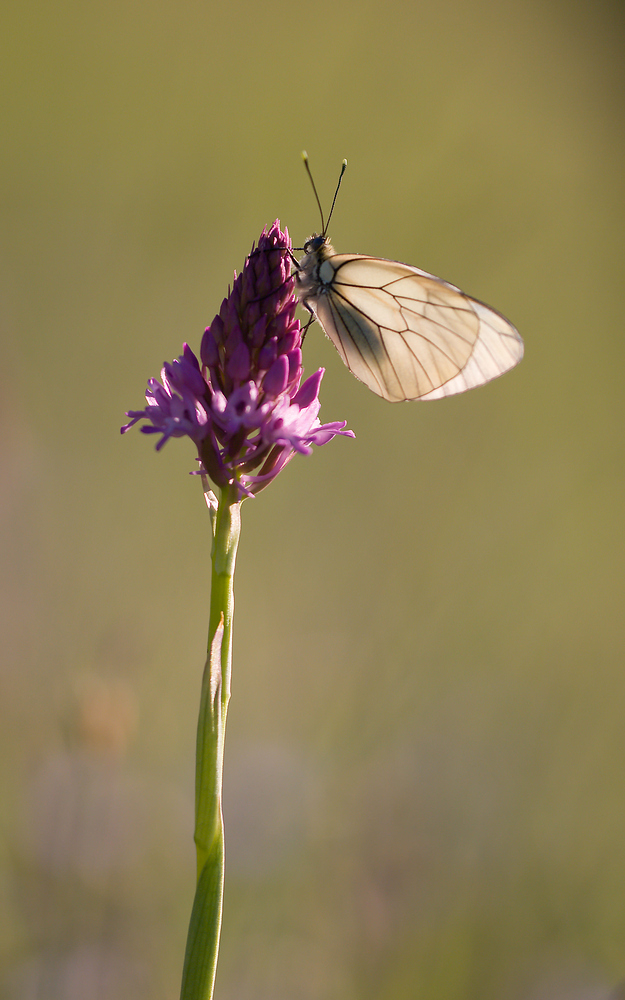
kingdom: Animalia
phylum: Arthropoda
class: Insecta
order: Lepidoptera
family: Pieridae
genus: Aporia
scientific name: Aporia crataegi
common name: Black-veined white
